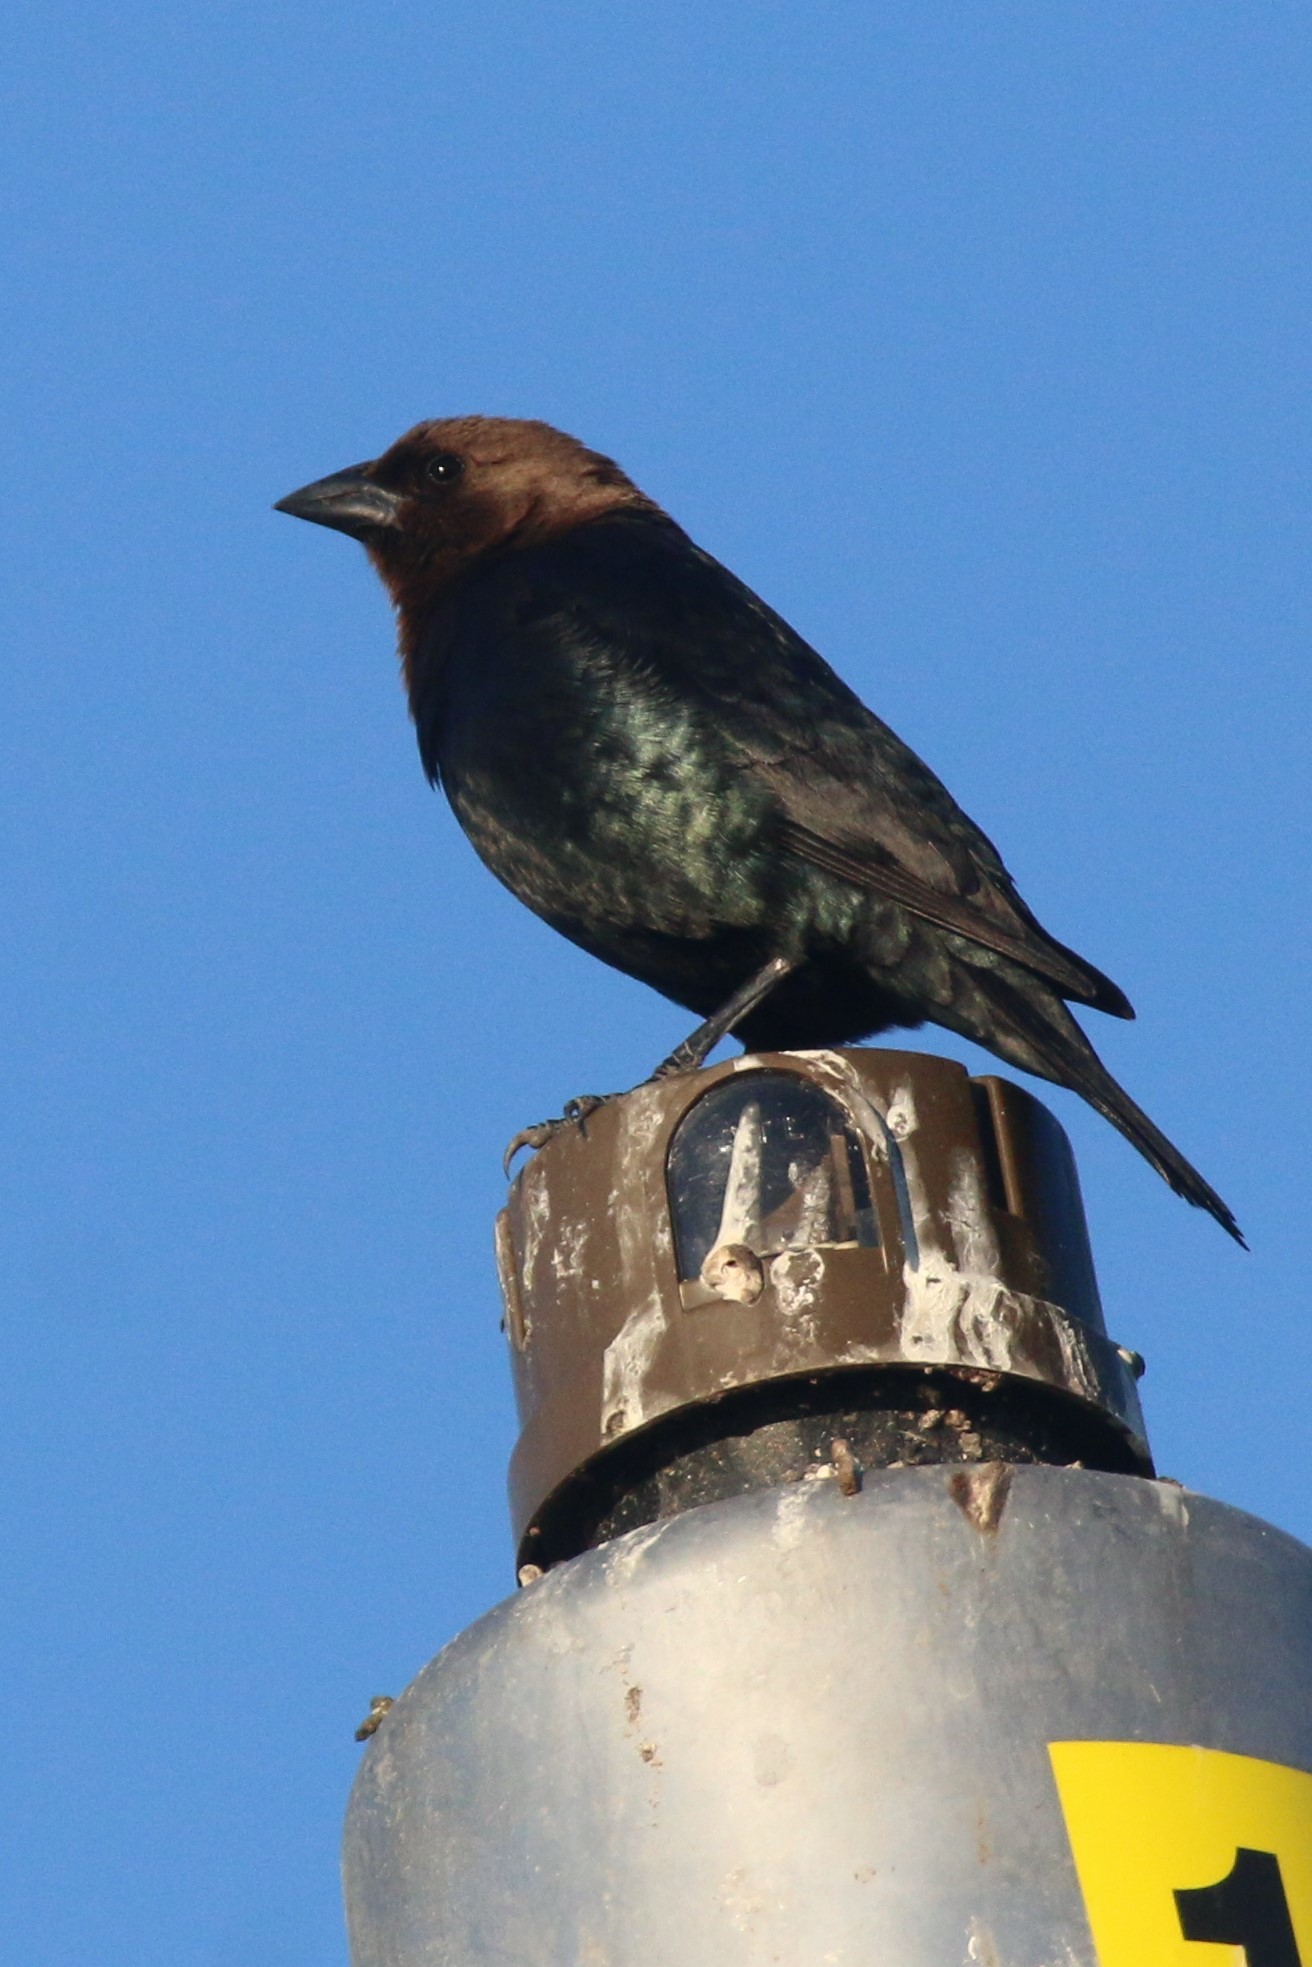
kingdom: Animalia
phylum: Chordata
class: Aves
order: Passeriformes
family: Icteridae
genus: Molothrus
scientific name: Molothrus ater
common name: Brown-headed cowbird
